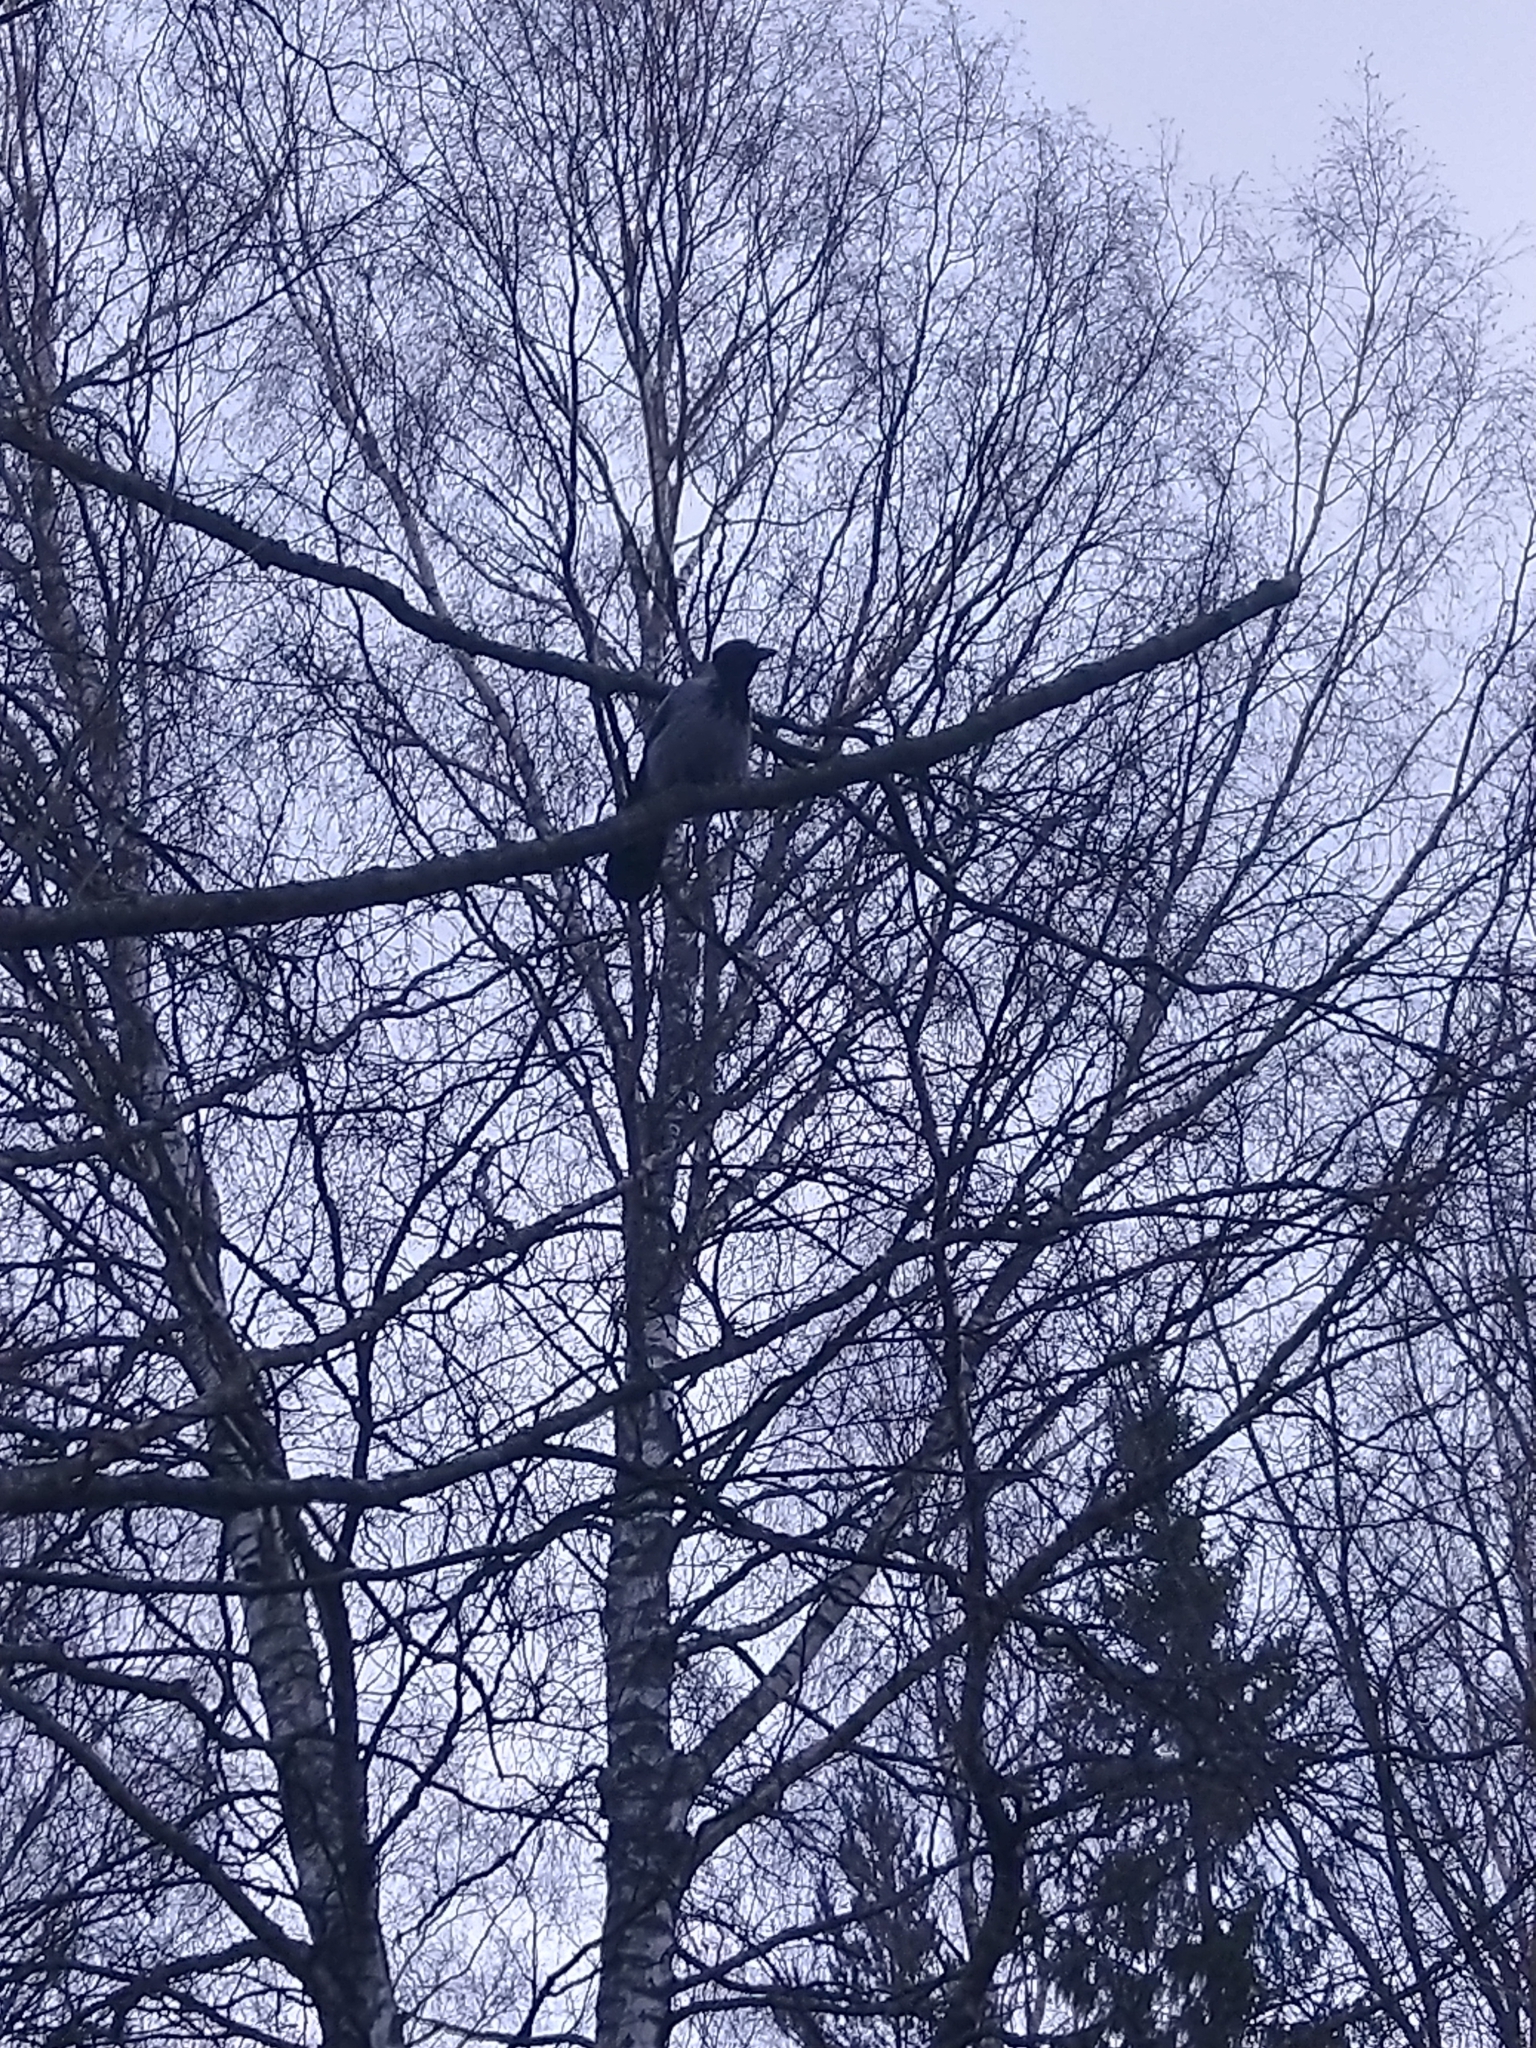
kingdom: Animalia
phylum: Chordata
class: Aves
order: Passeriformes
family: Corvidae
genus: Corvus
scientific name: Corvus cornix
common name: Hooded crow
